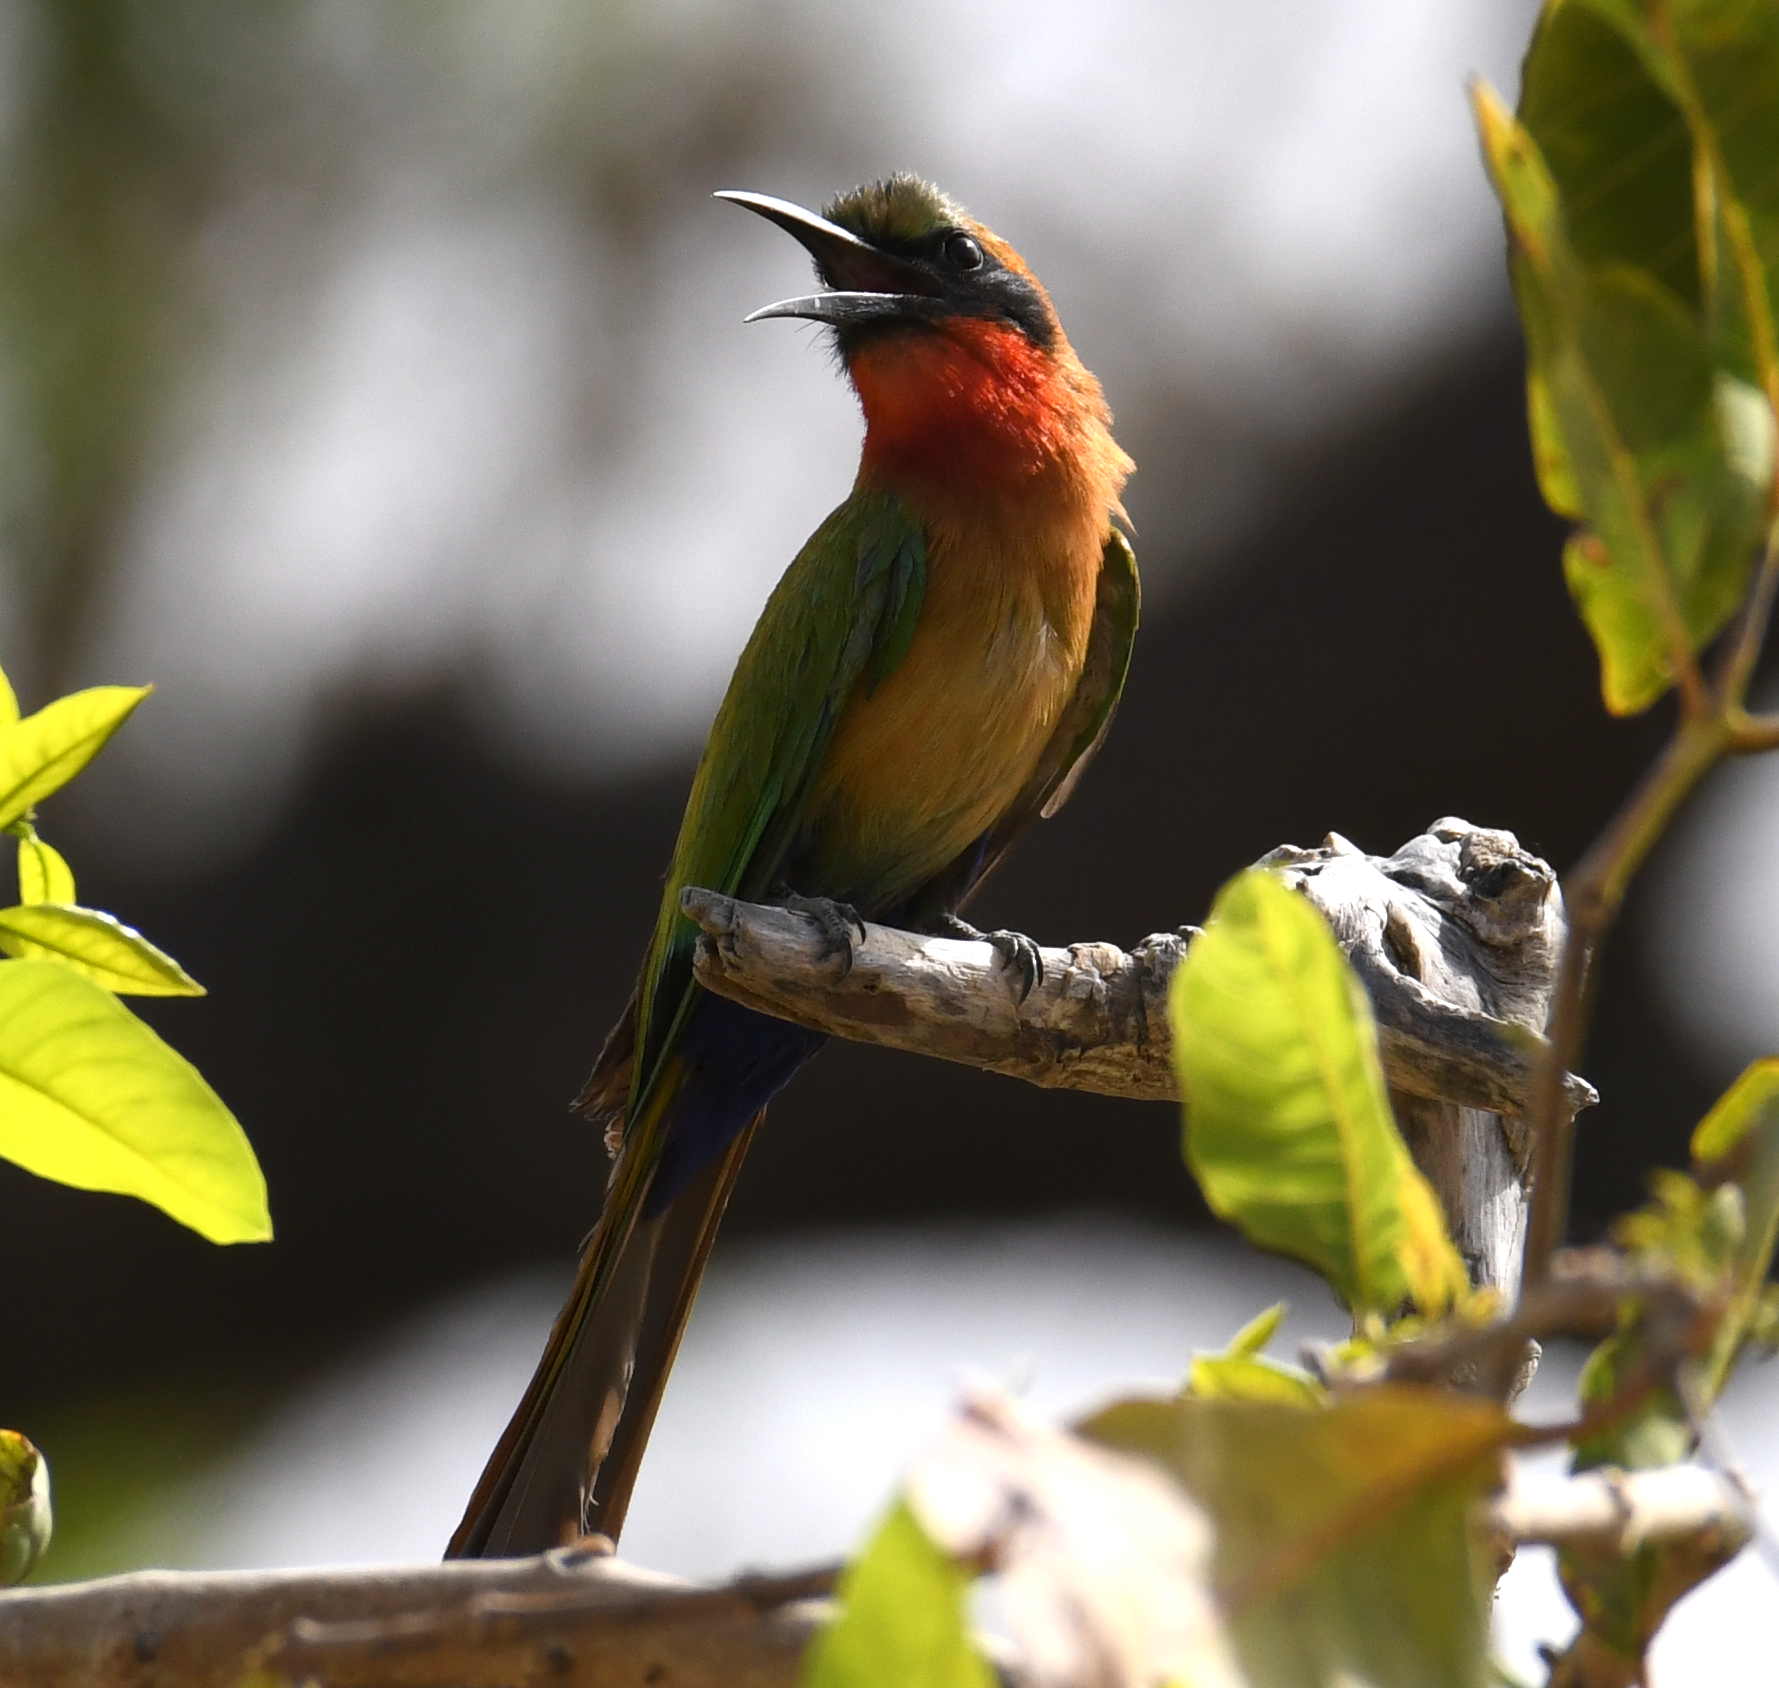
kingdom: Animalia
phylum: Chordata
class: Aves
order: Coraciiformes
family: Meropidae
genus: Merops
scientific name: Merops bulocki
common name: Red-throated bee-eater
